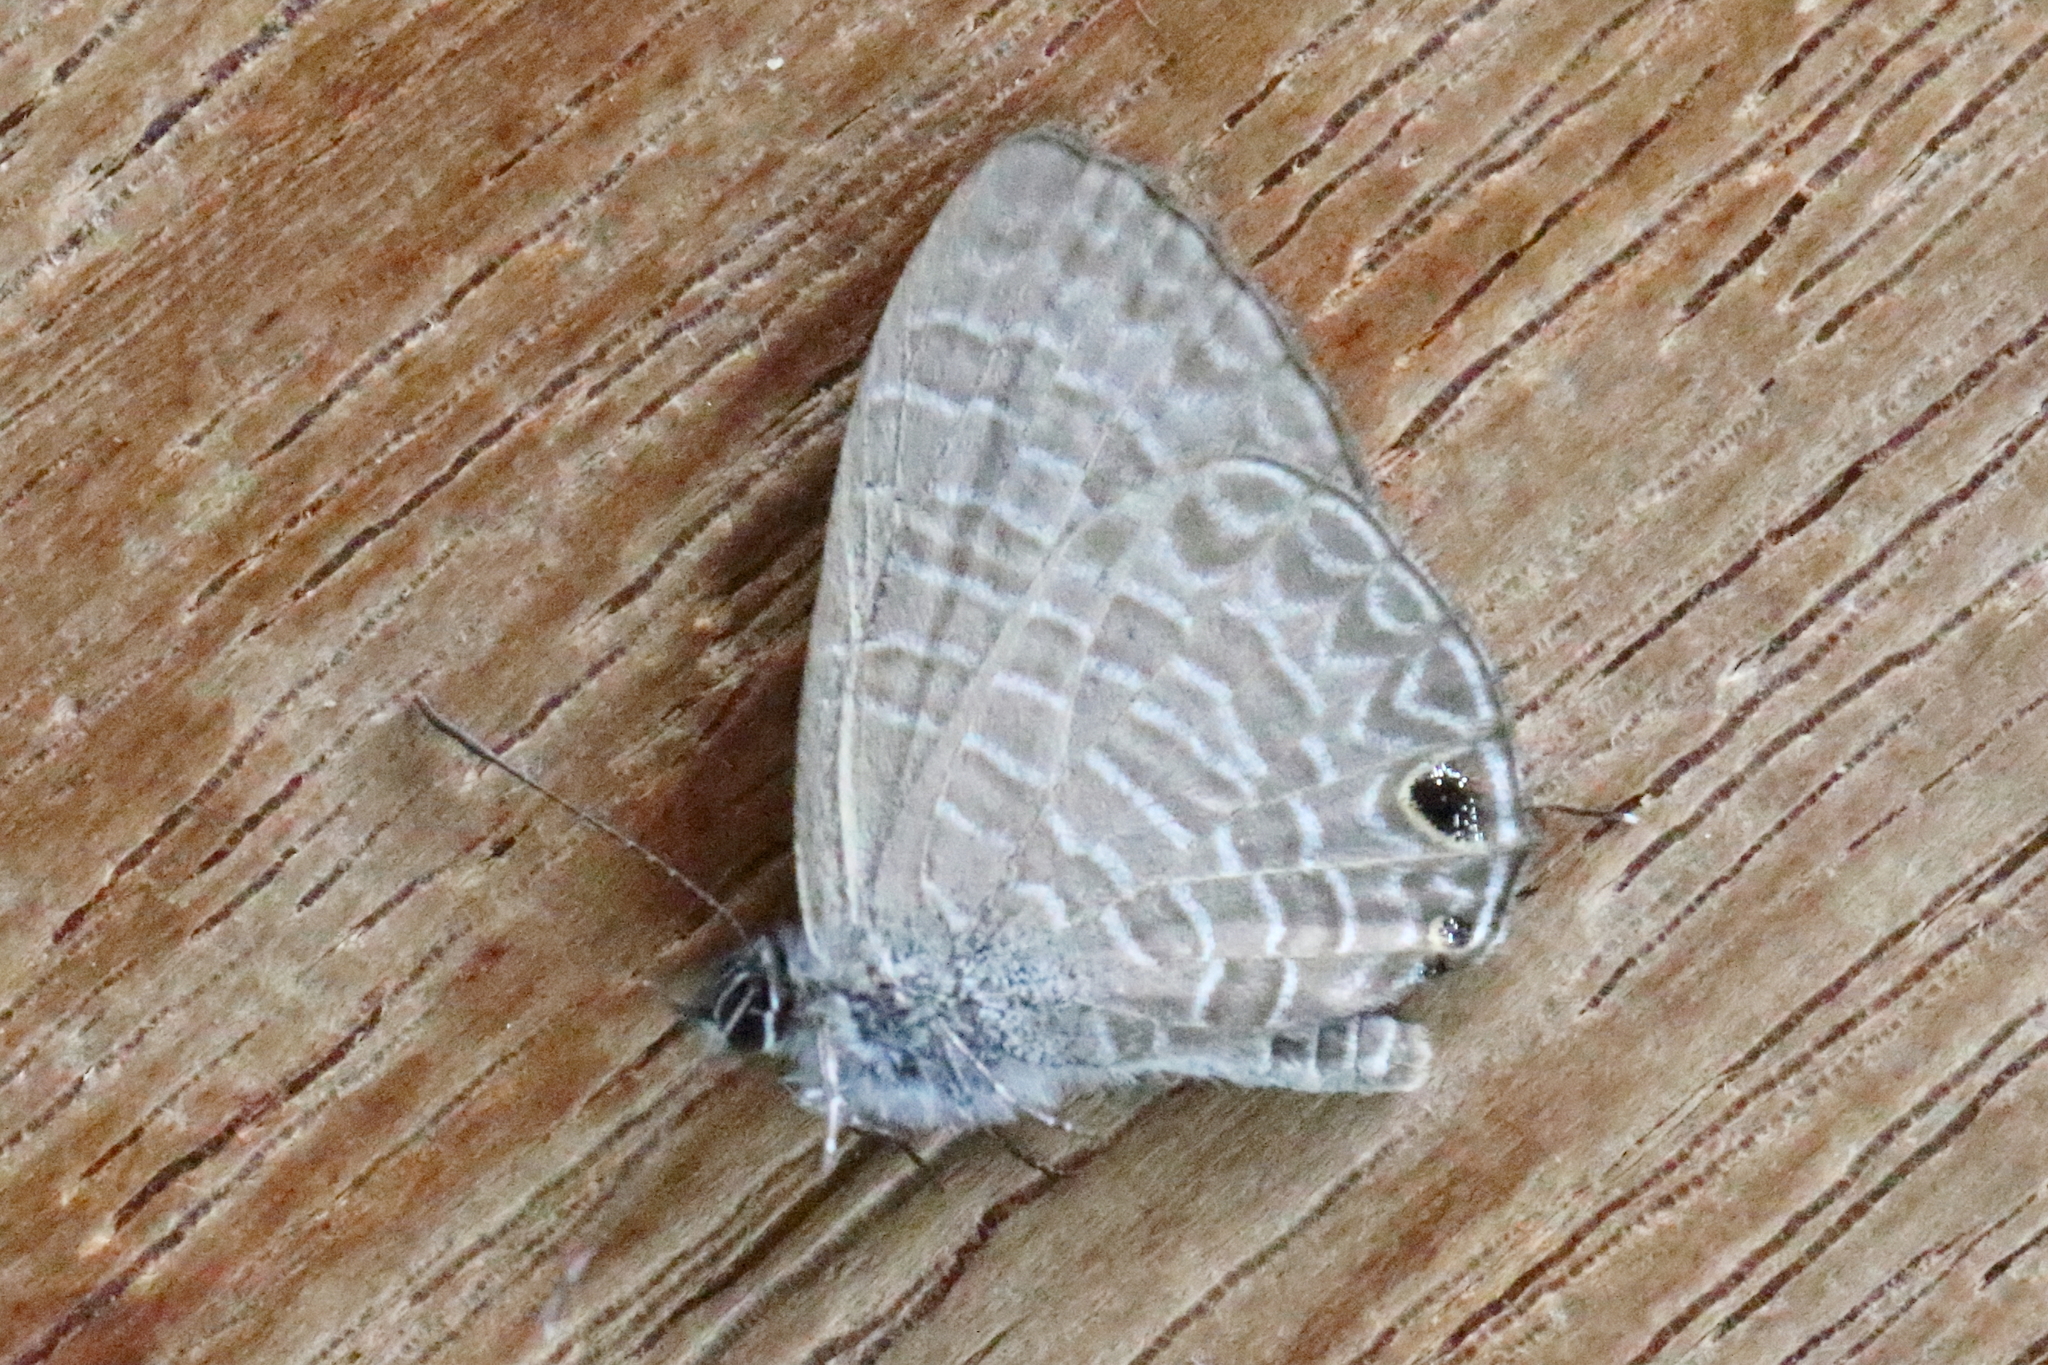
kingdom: Animalia
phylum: Arthropoda
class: Insecta
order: Lepidoptera
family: Lycaenidae
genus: Nacaduba
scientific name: Nacaduba berenice
